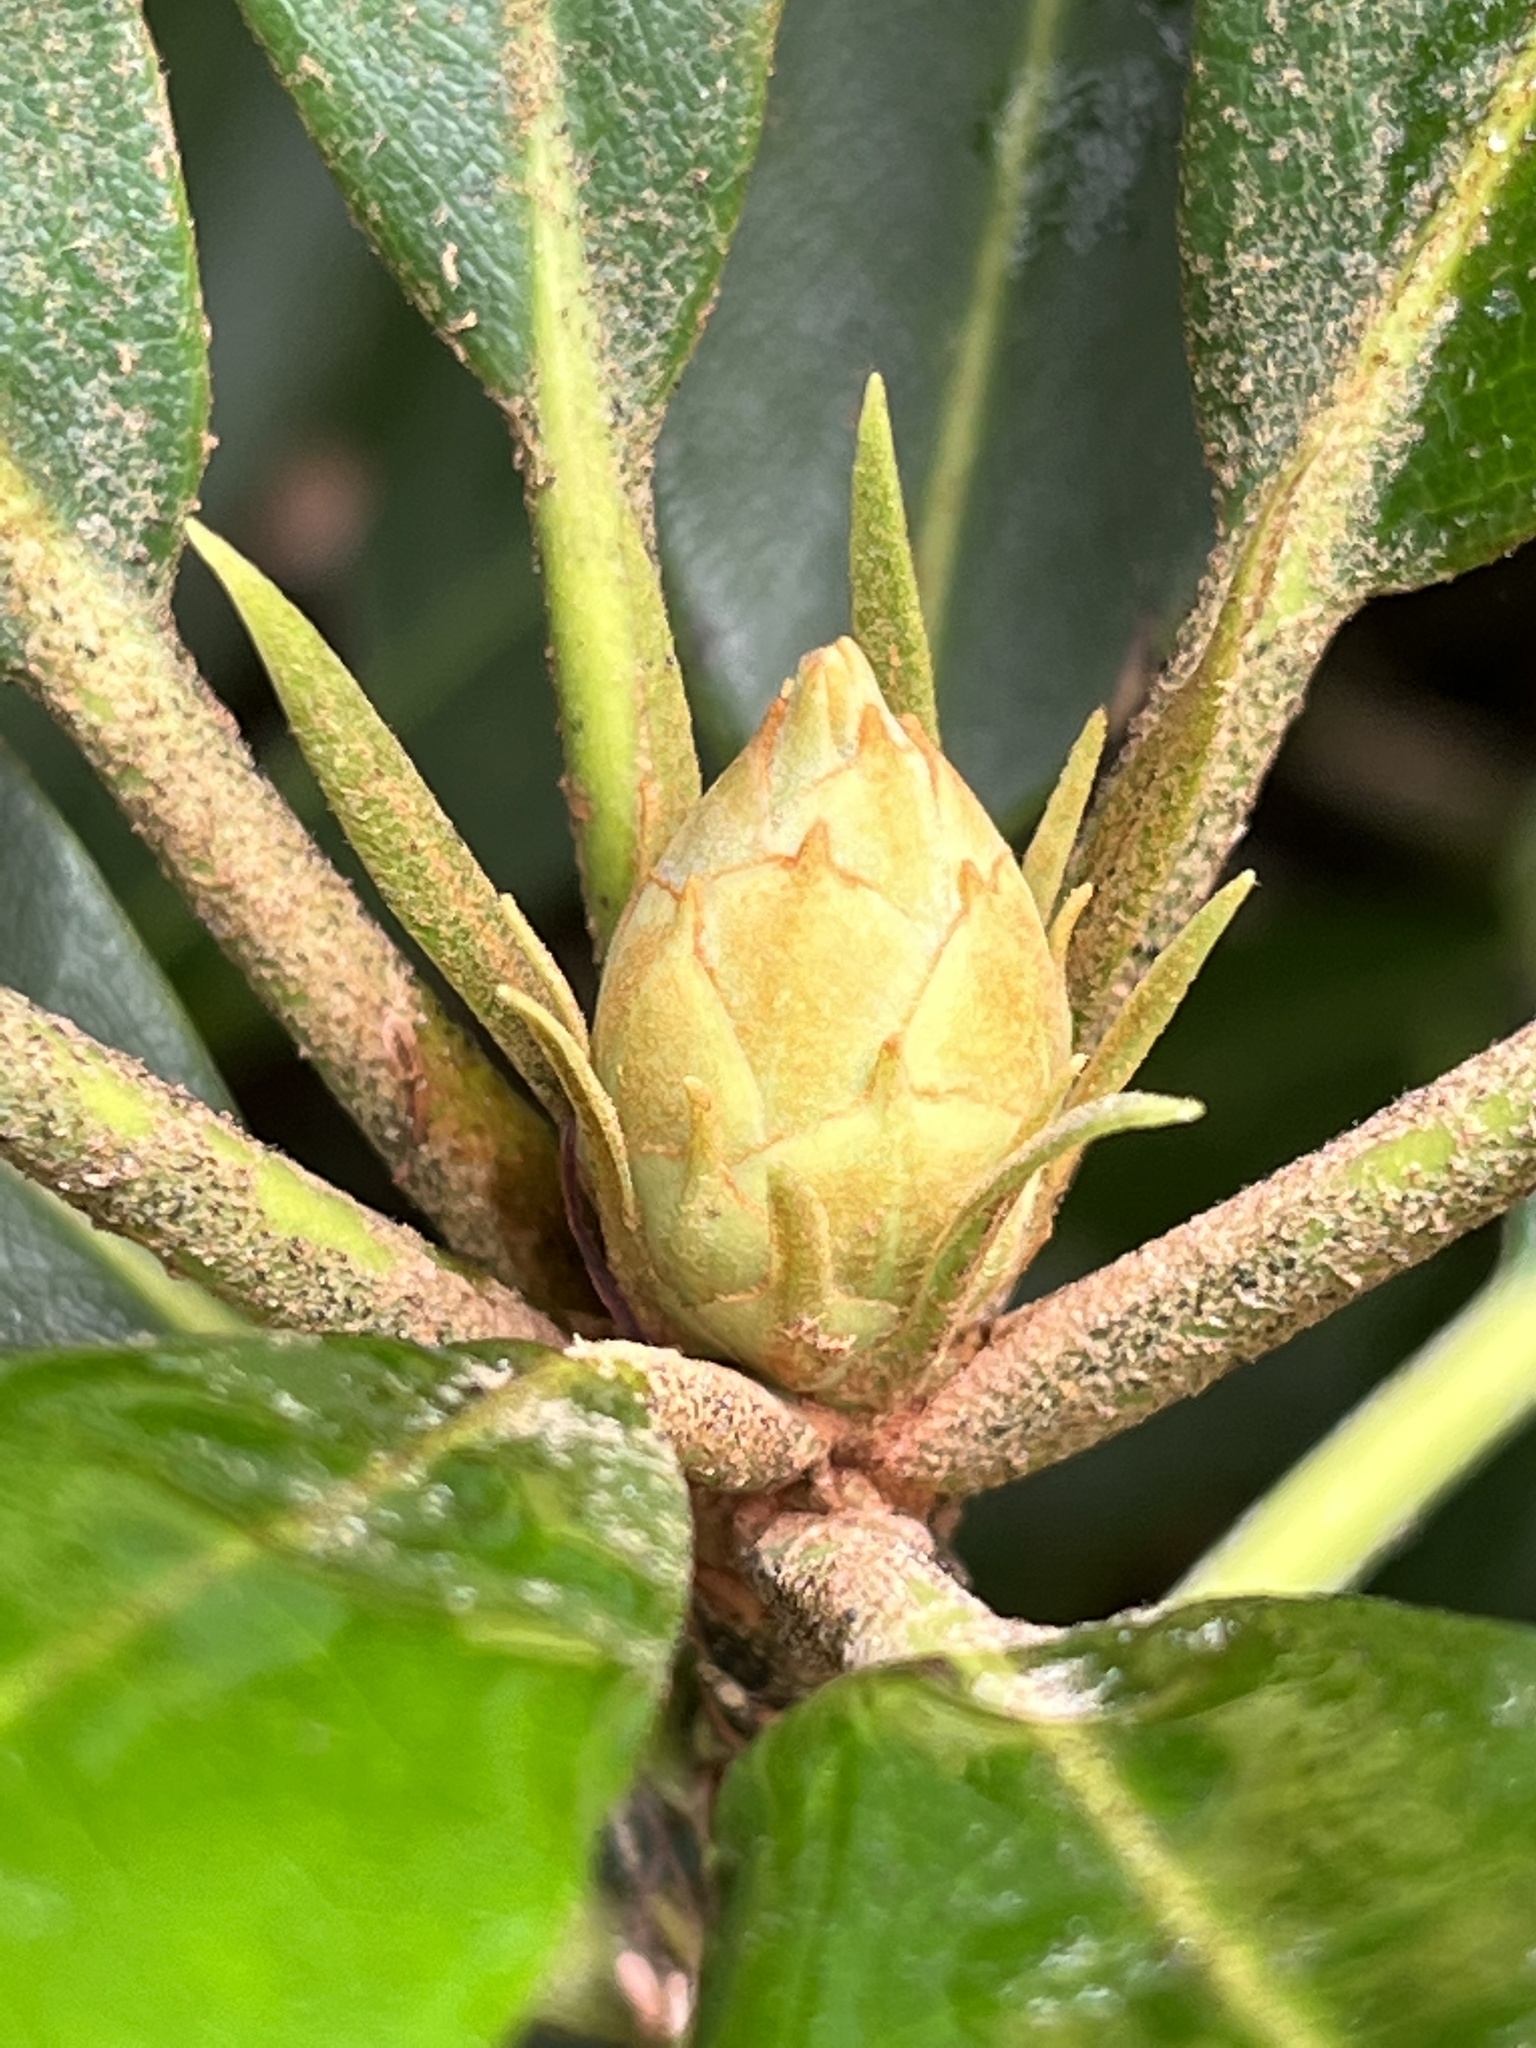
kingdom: Plantae
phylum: Tracheophyta
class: Magnoliopsida
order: Ericales
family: Ericaceae
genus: Rhododendron
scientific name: Rhododendron maximum
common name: Great rhododendron
